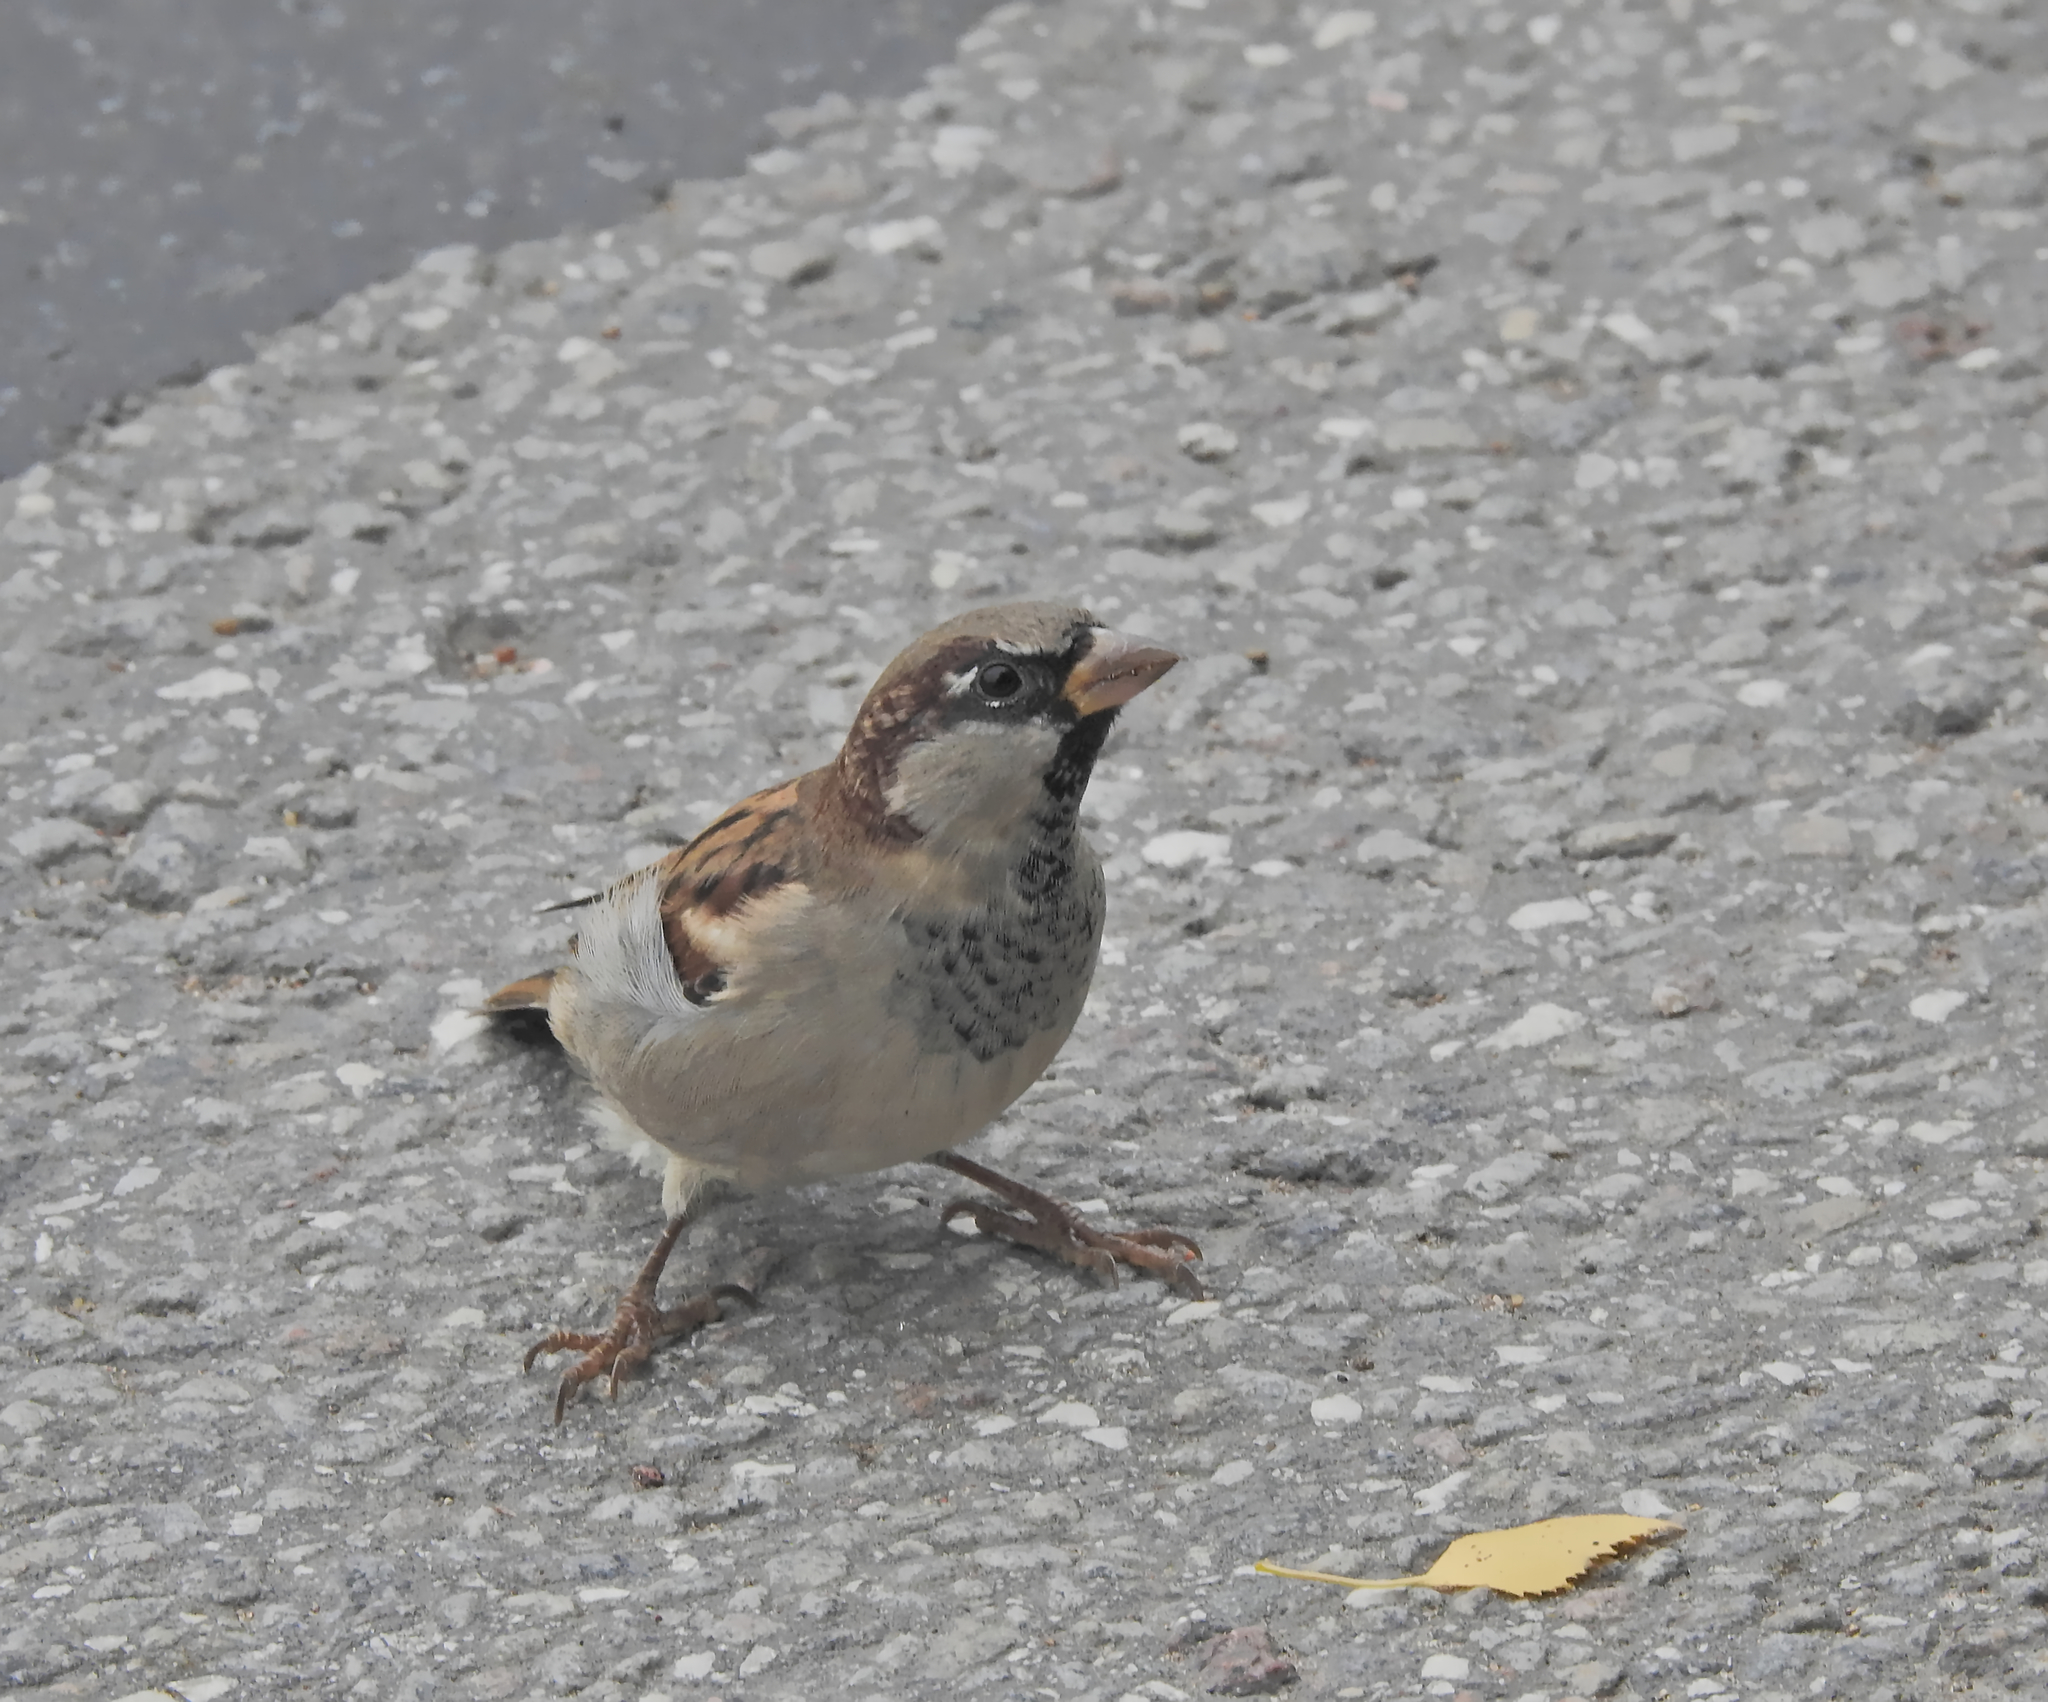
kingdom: Animalia
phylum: Chordata
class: Aves
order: Passeriformes
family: Passeridae
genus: Passer
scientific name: Passer domesticus
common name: House sparrow
